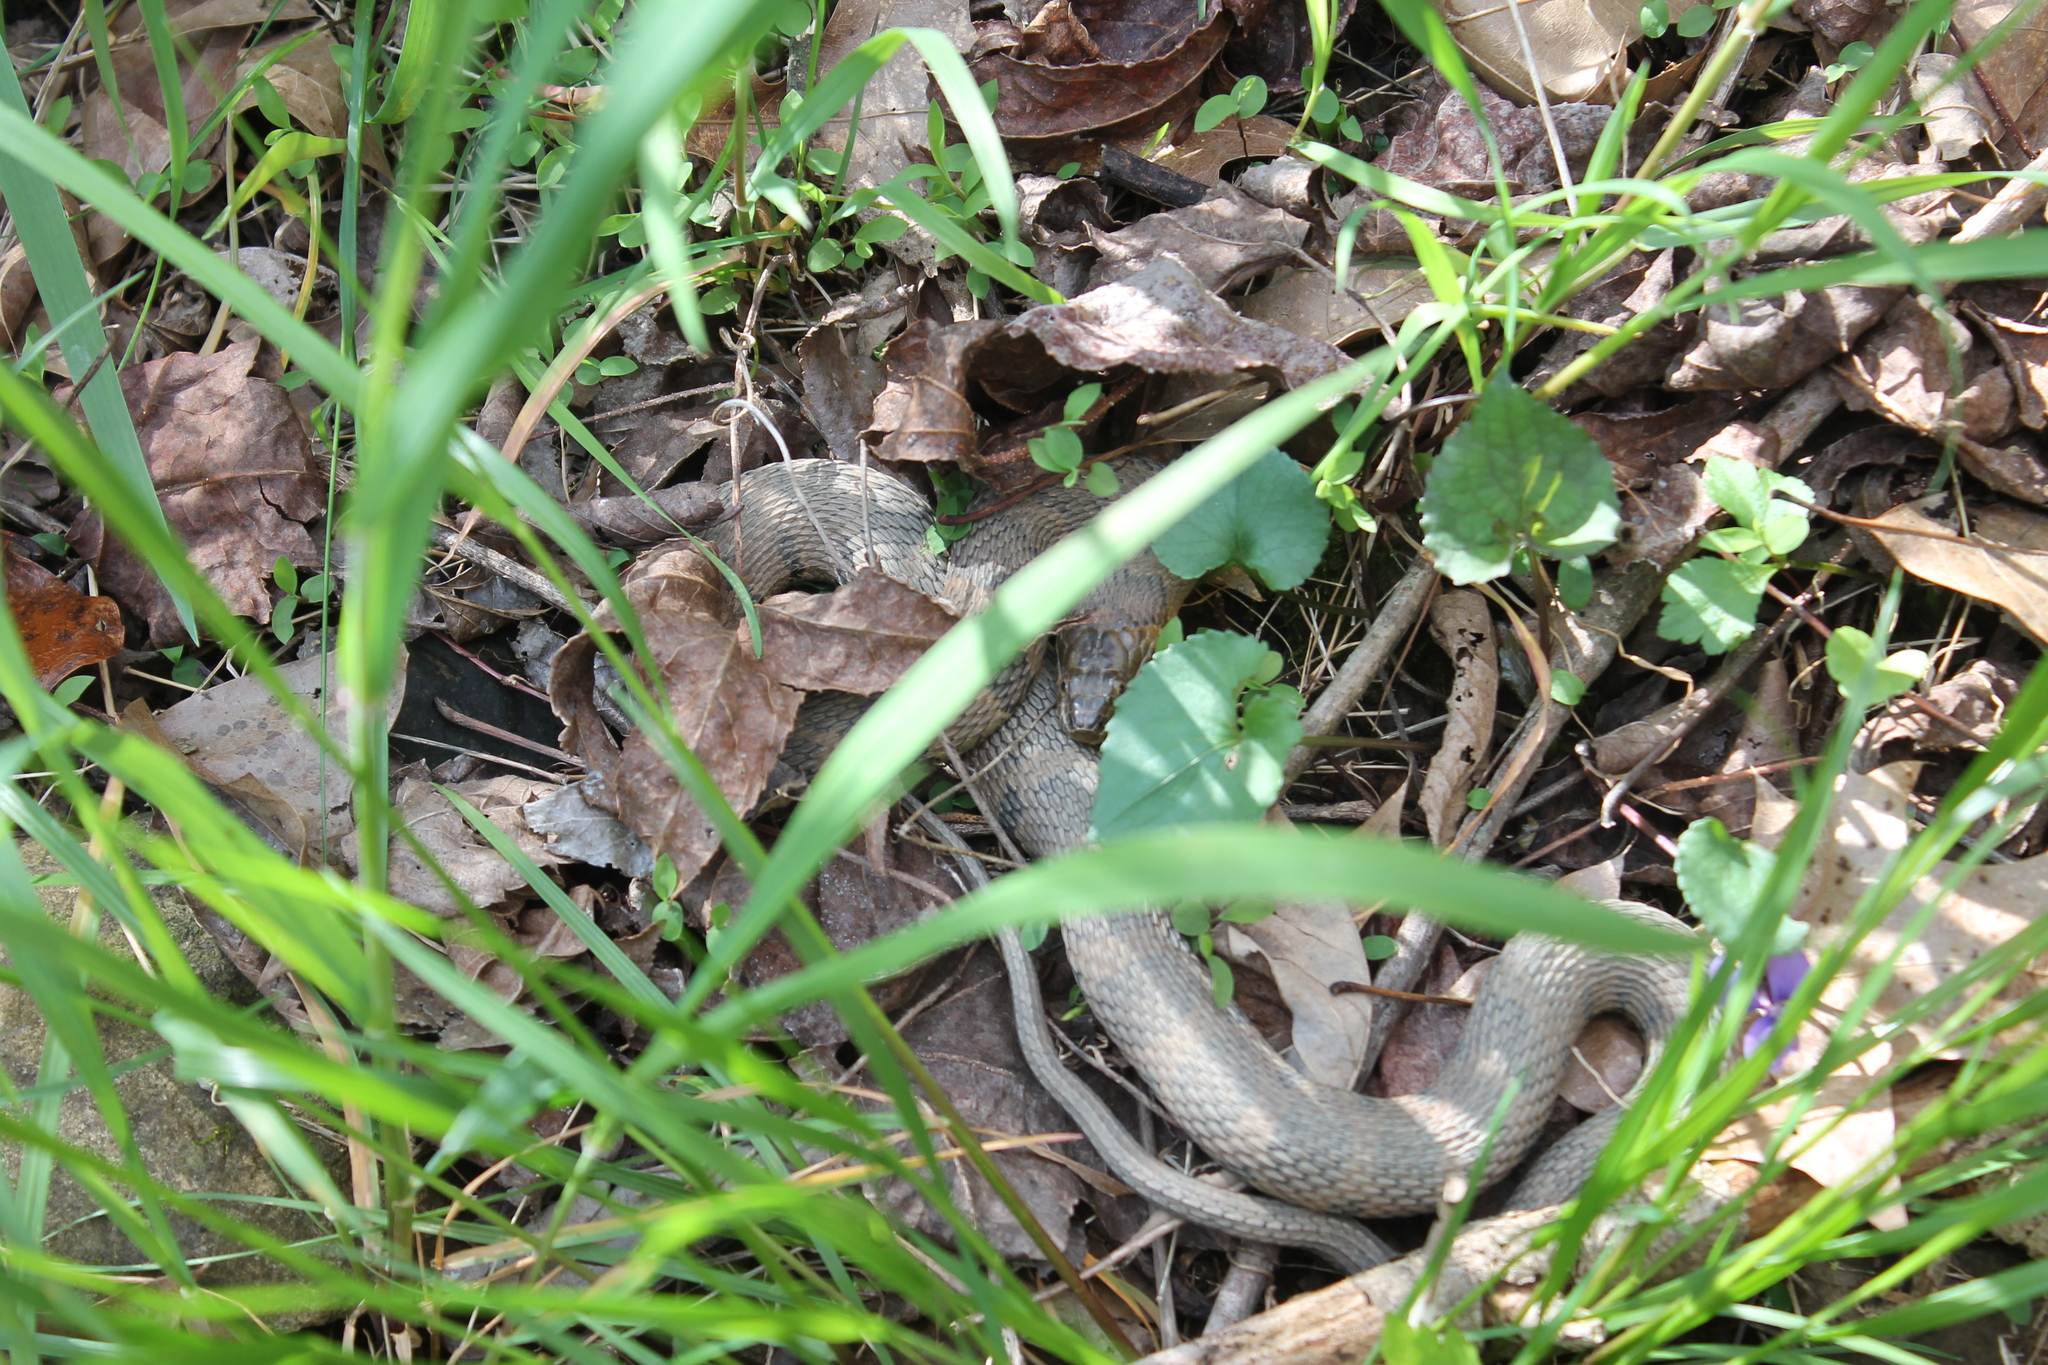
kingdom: Animalia
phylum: Chordata
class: Squamata
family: Colubridae
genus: Nerodia
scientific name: Nerodia sipedon
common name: Northern water snake
